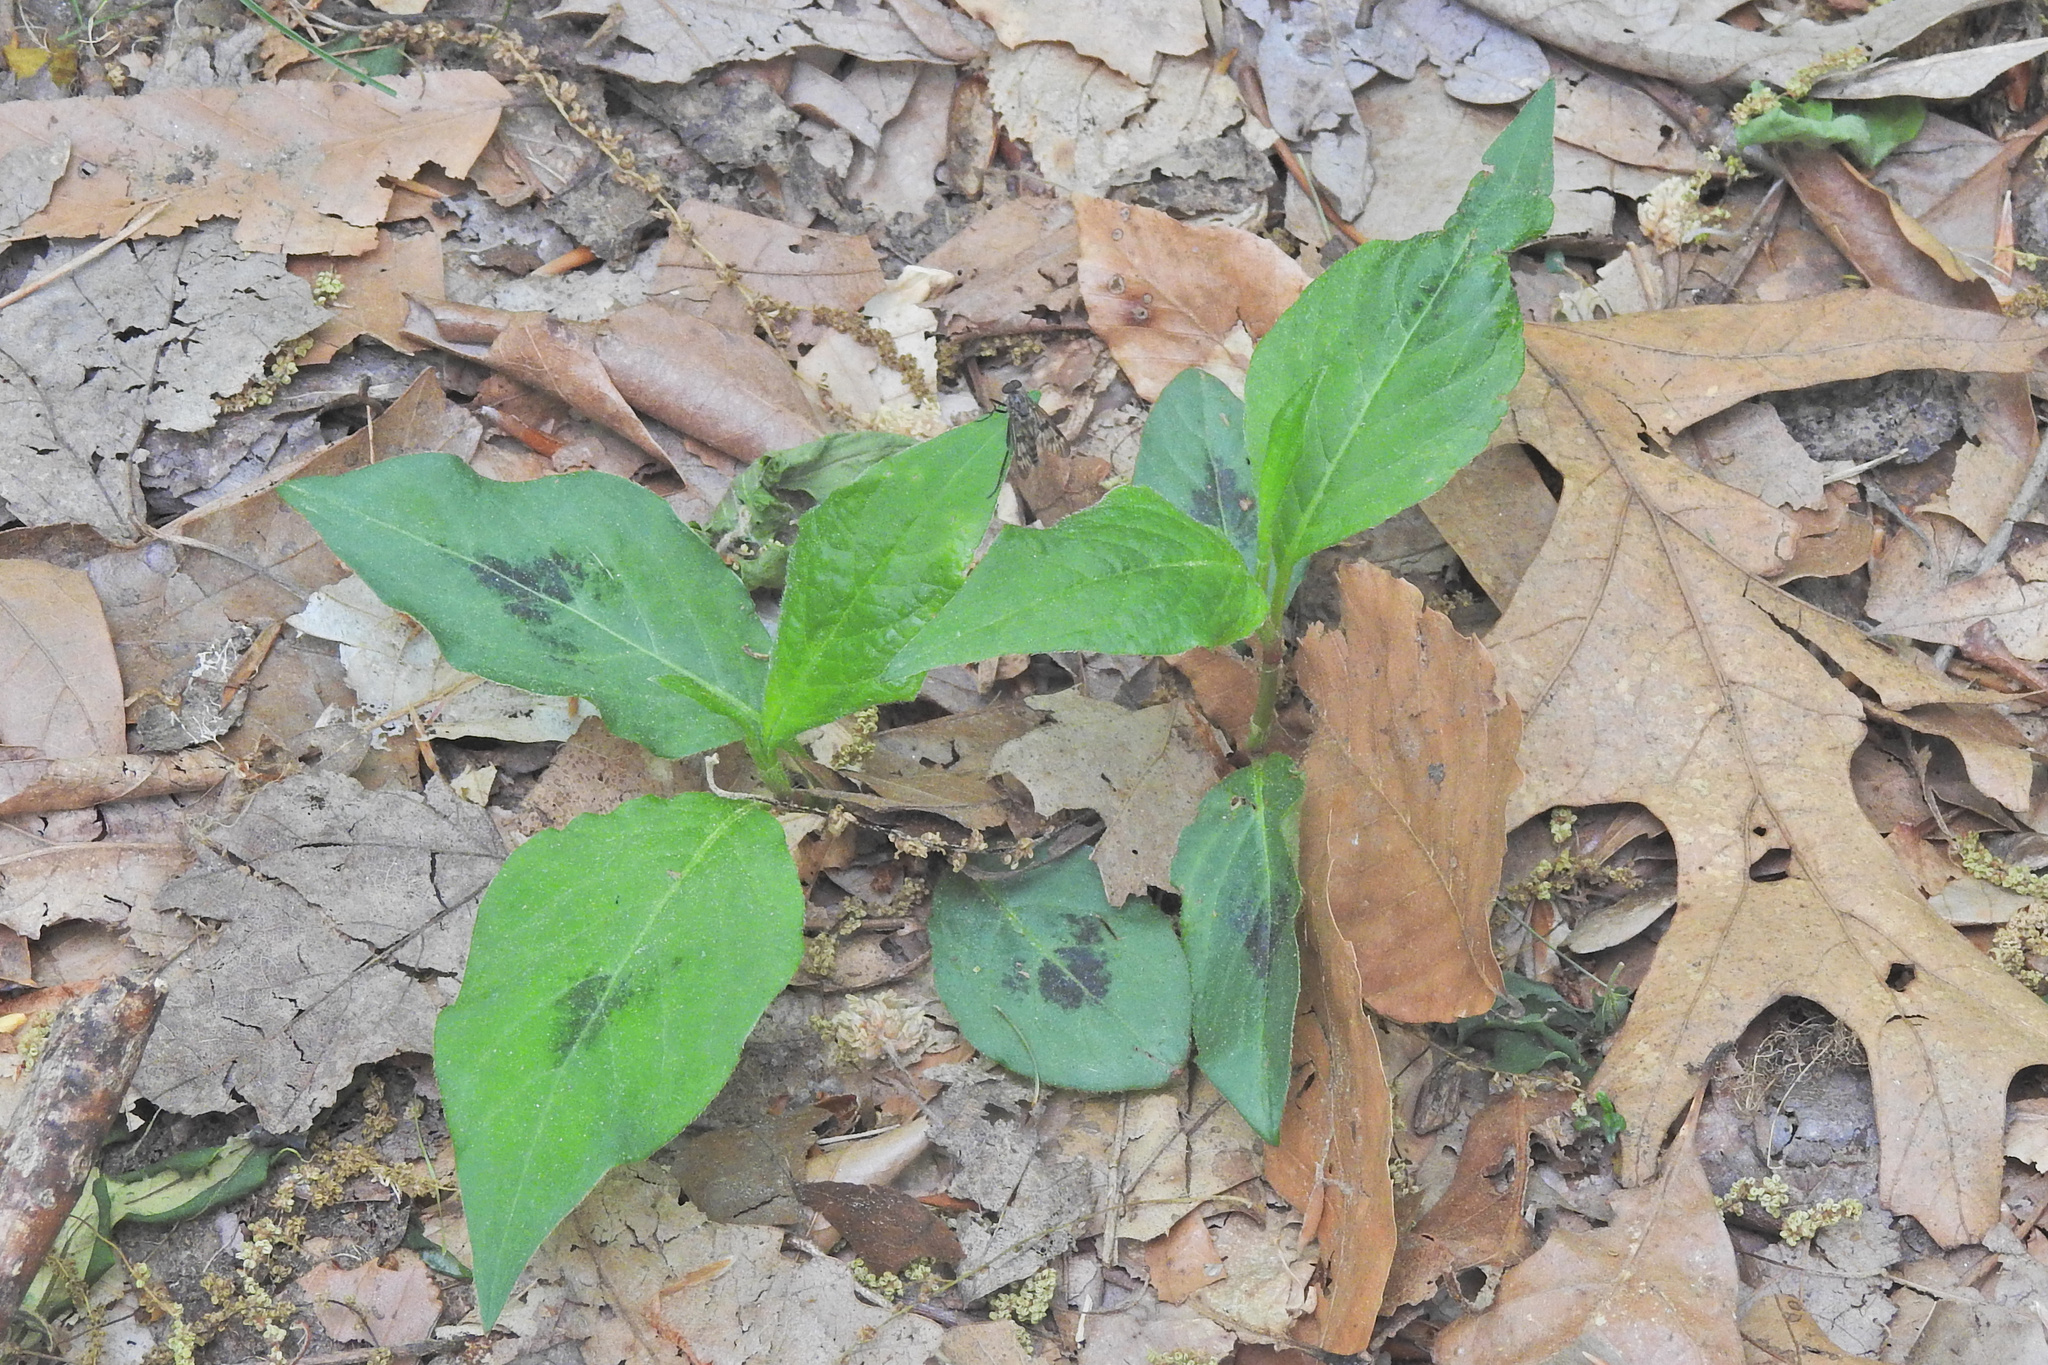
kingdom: Plantae
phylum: Tracheophyta
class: Magnoliopsida
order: Caryophyllales
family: Polygonaceae
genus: Persicaria
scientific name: Persicaria virginiana
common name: Jumpseed
